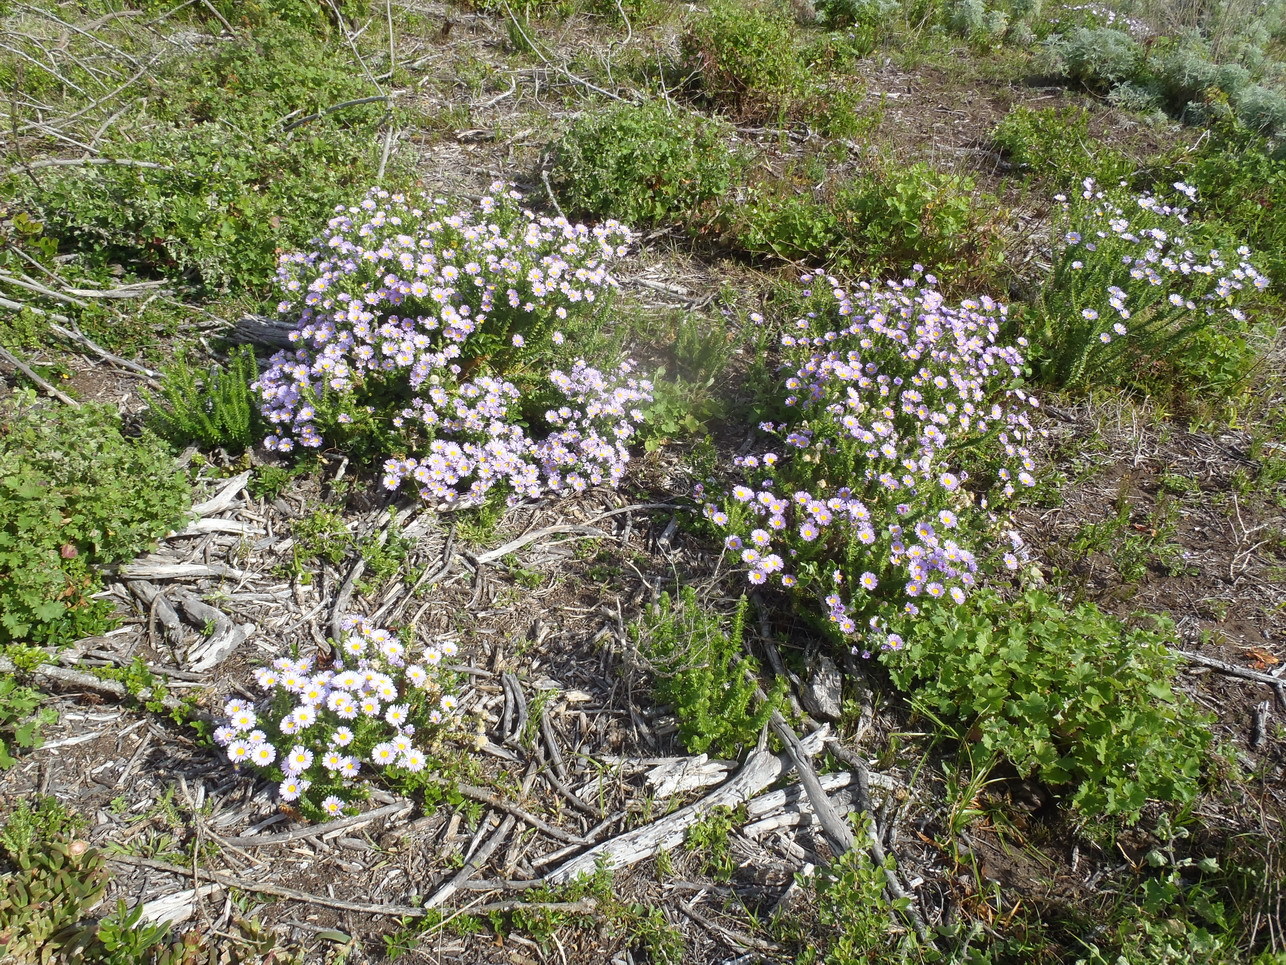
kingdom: Plantae
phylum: Tracheophyta
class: Magnoliopsida
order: Asterales
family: Asteraceae
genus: Felicia
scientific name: Felicia echinata
